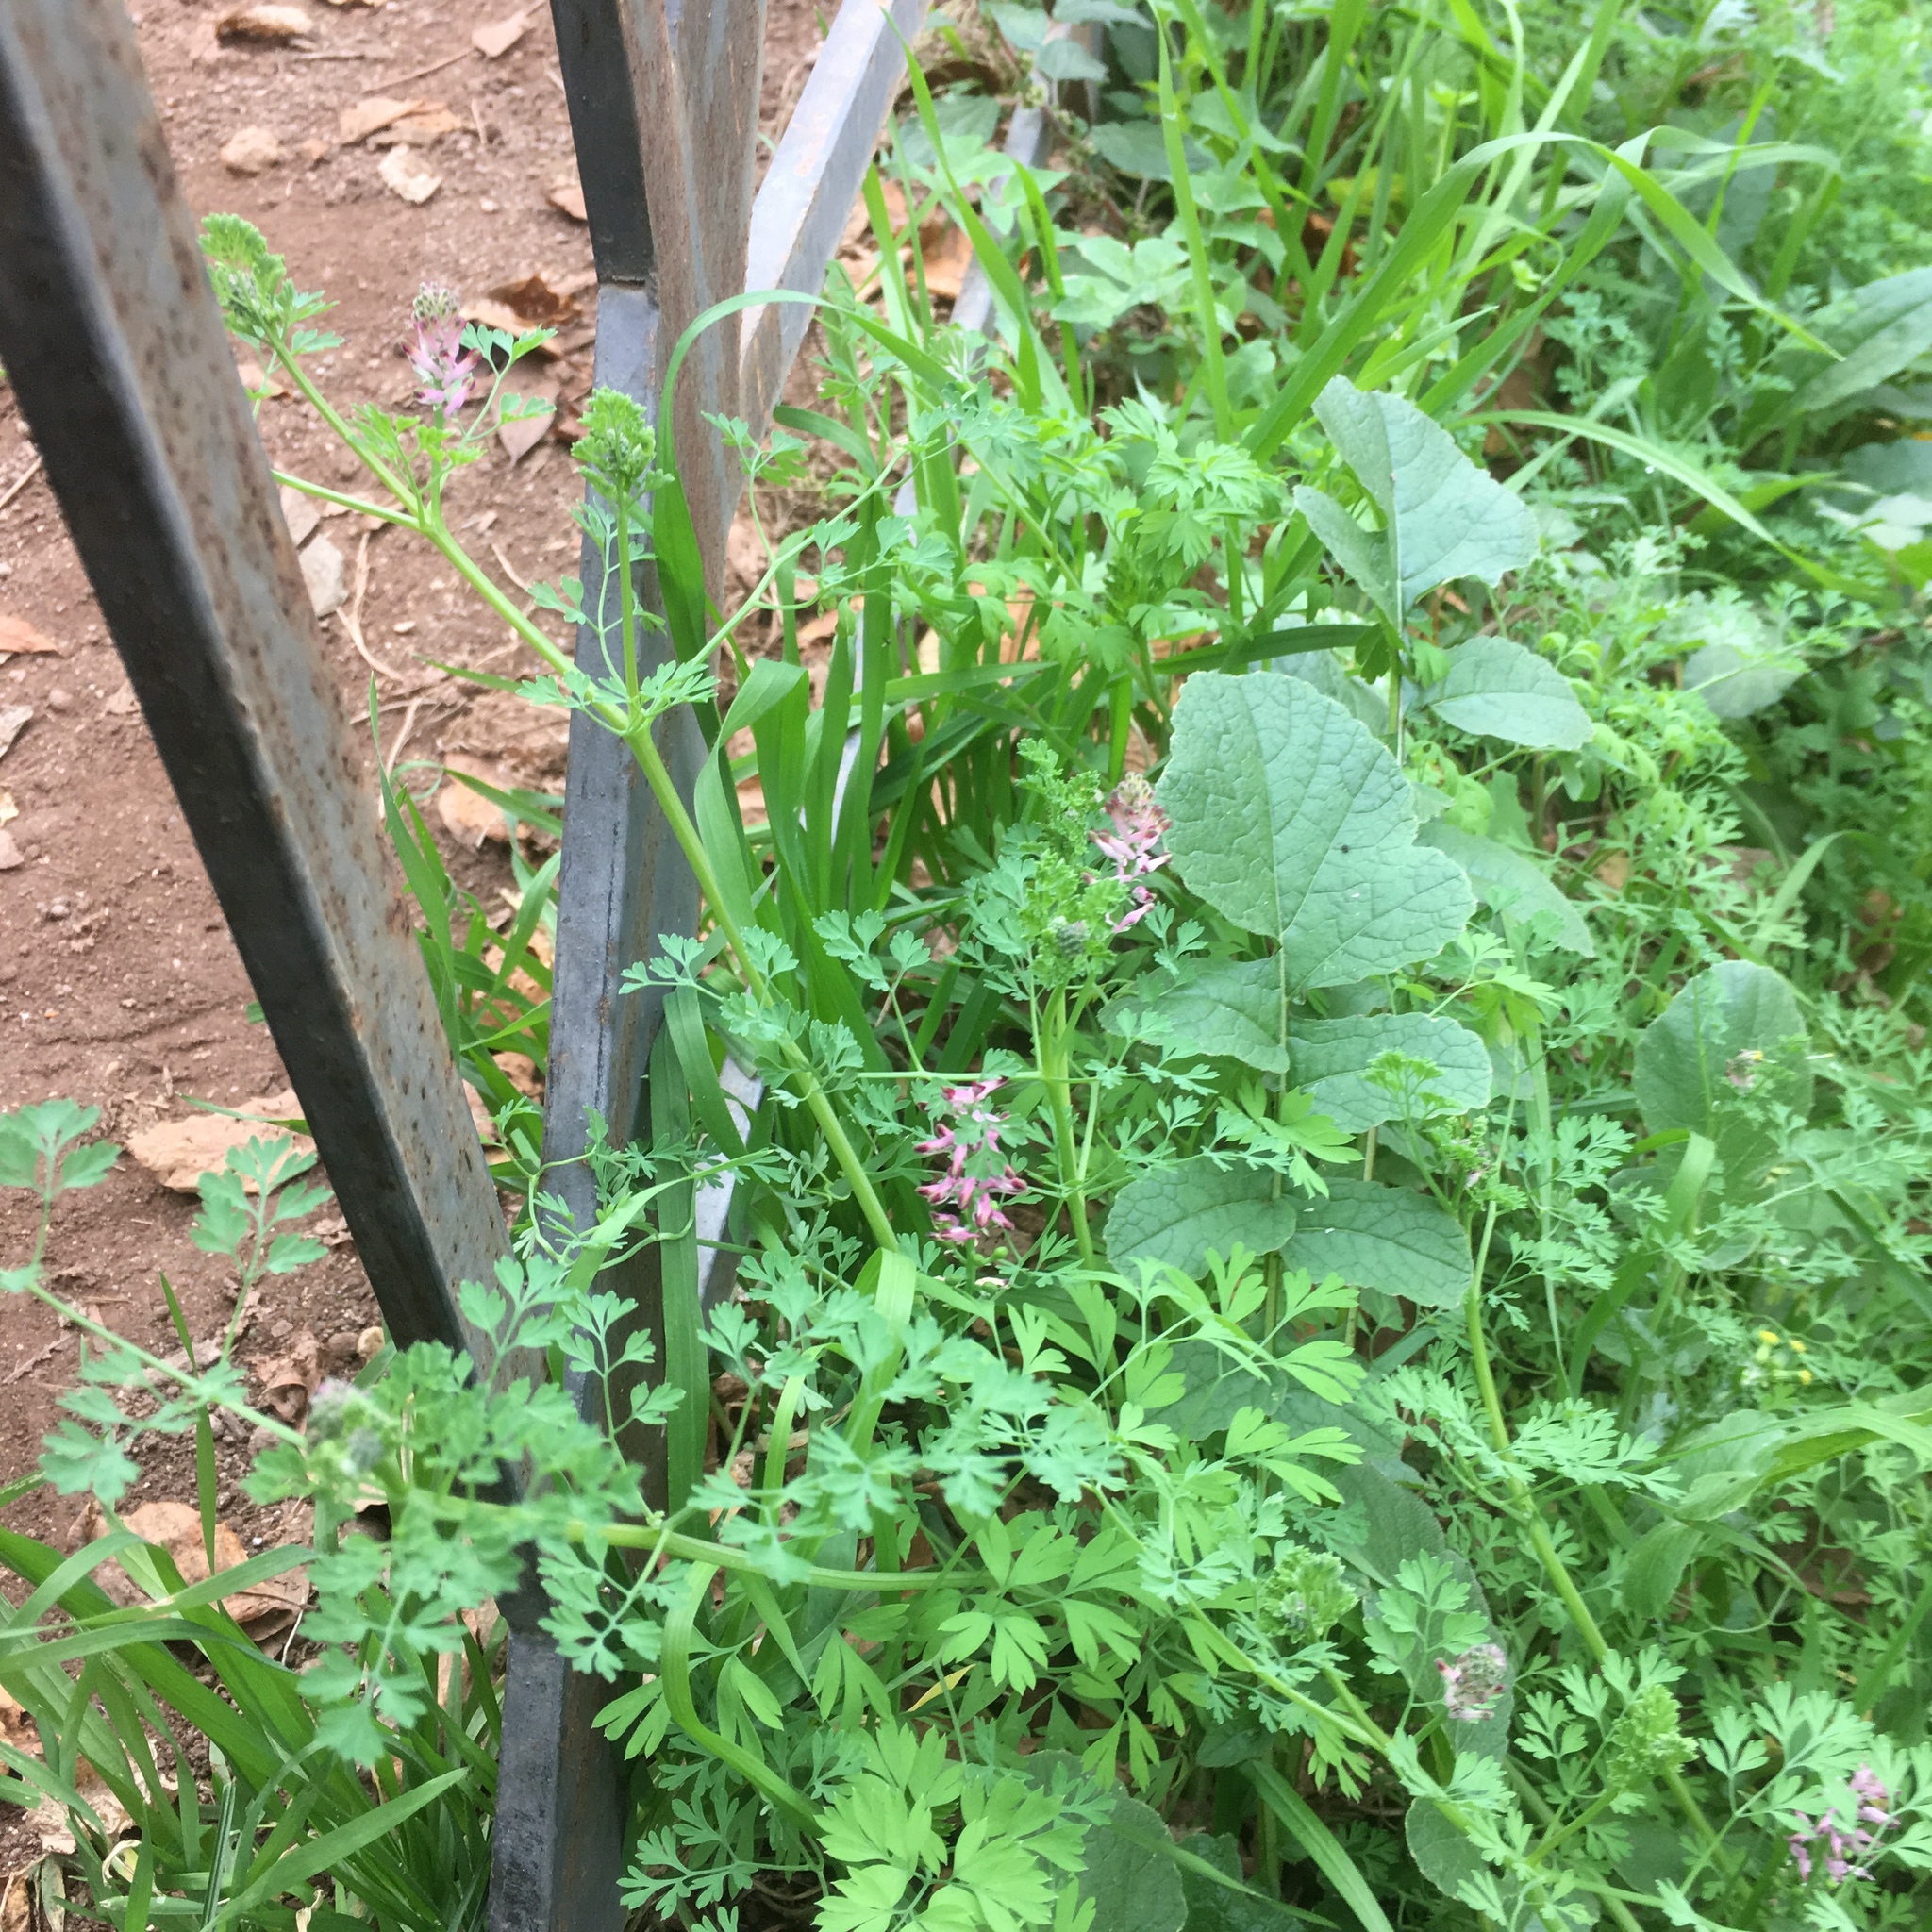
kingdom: Plantae
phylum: Tracheophyta
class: Magnoliopsida
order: Ranunculales
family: Papaveraceae
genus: Fumaria
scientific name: Fumaria officinalis
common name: Common fumitory
